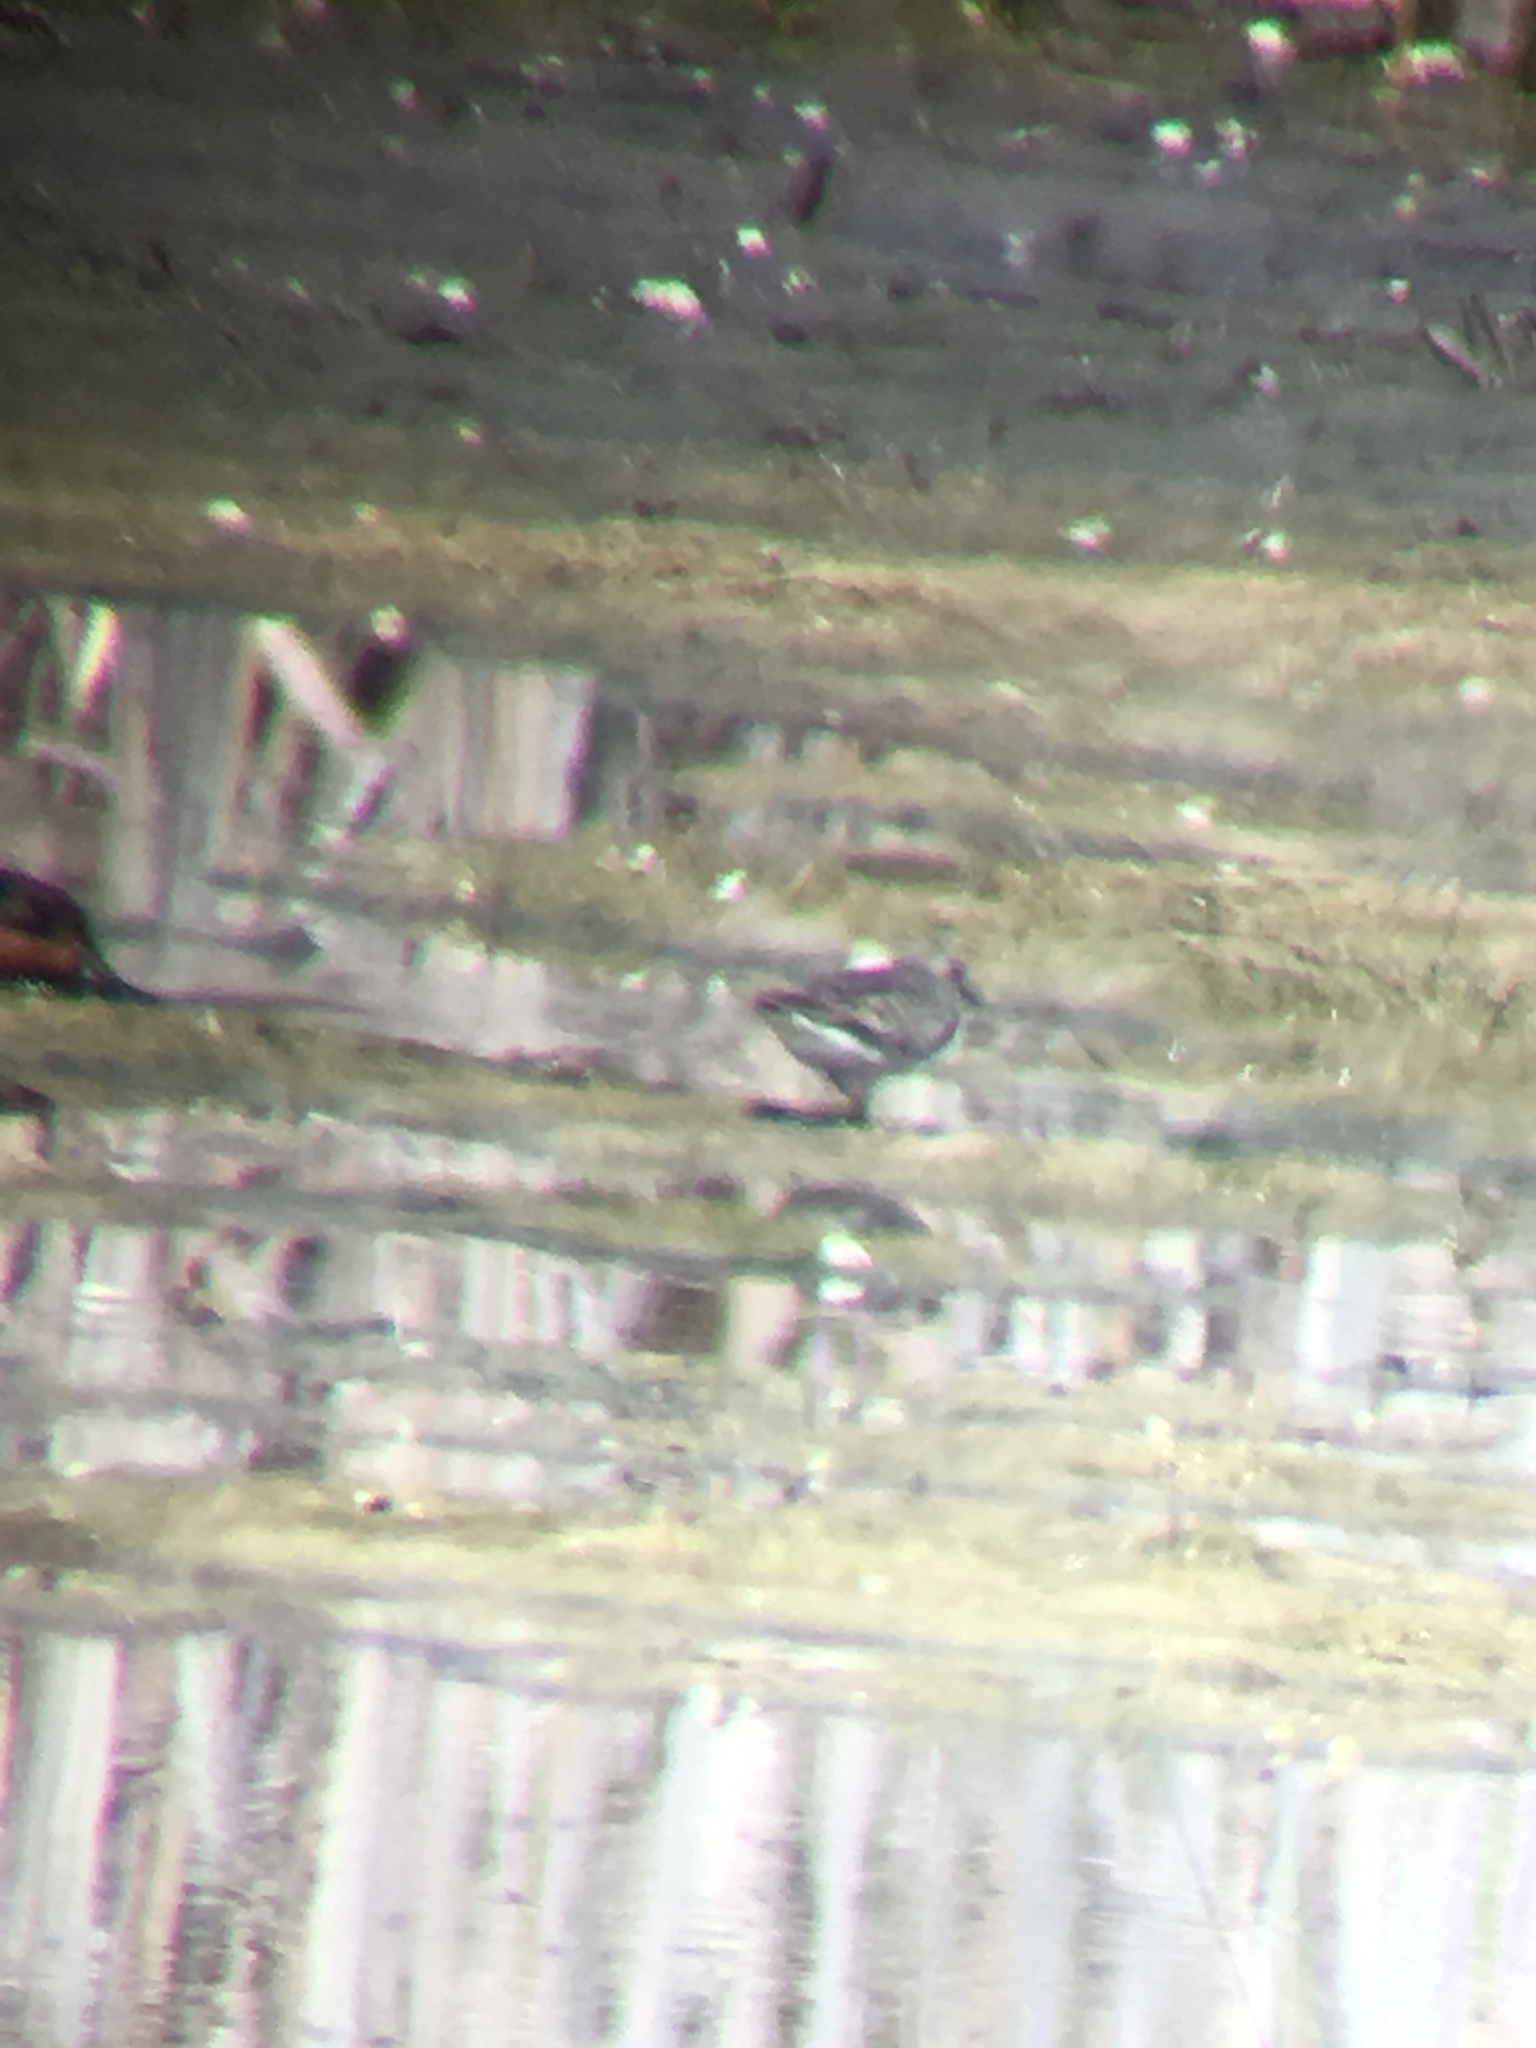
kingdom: Animalia
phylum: Chordata
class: Aves
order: Charadriiformes
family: Scolopacidae
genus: Calidris
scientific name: Calidris minutilla
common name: Least sandpiper
